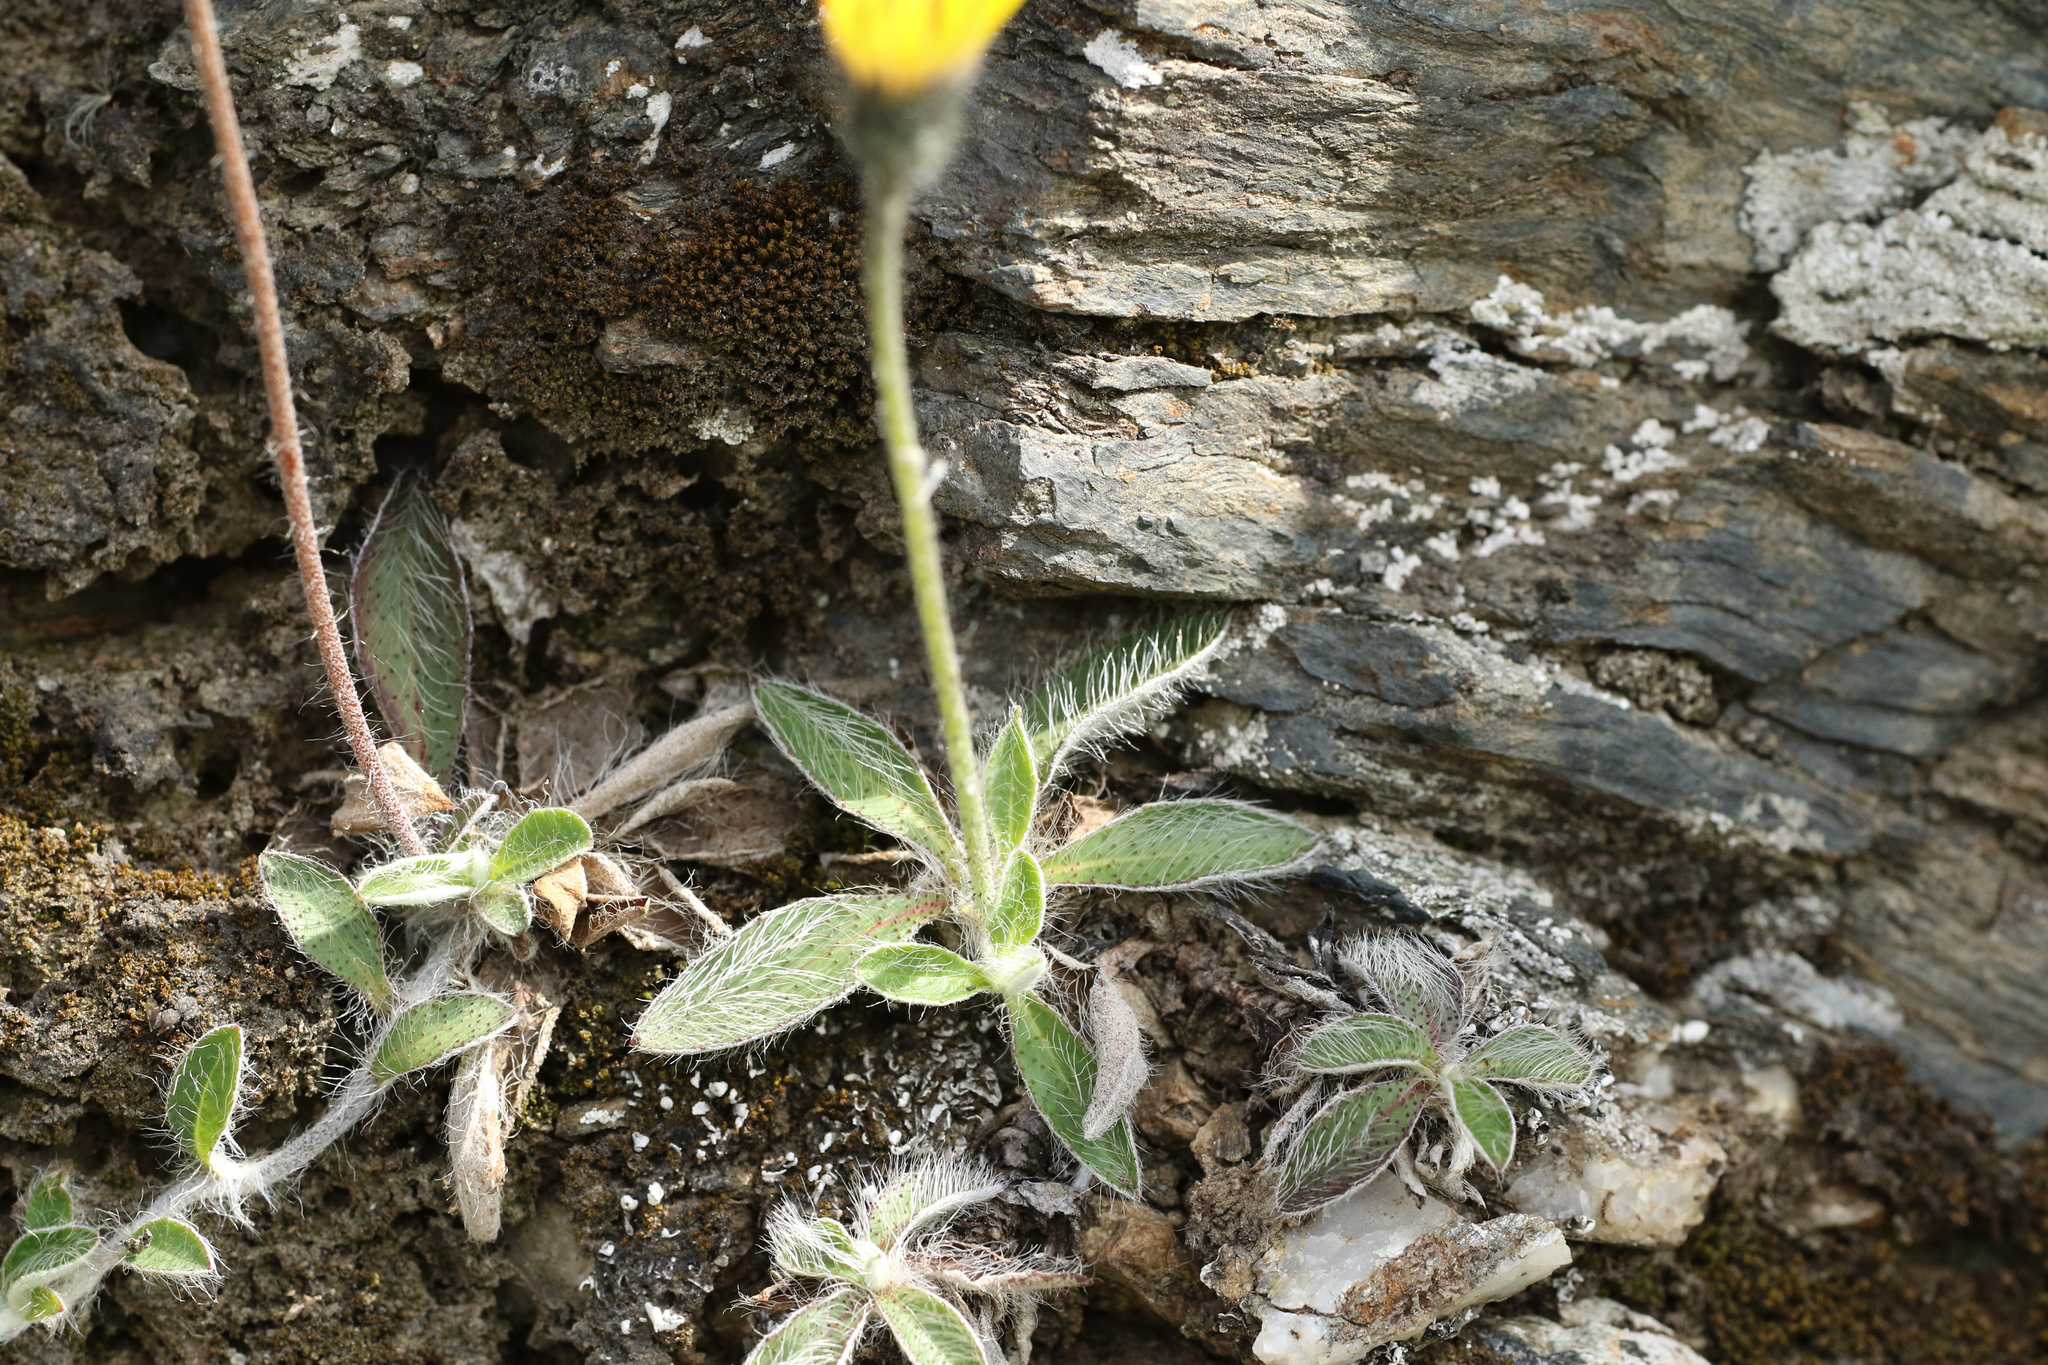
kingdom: Plantae
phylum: Tracheophyta
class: Magnoliopsida
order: Asterales
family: Asteraceae
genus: Pilosella
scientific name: Pilosella officinarum
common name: Mouse-ear hawkweed
